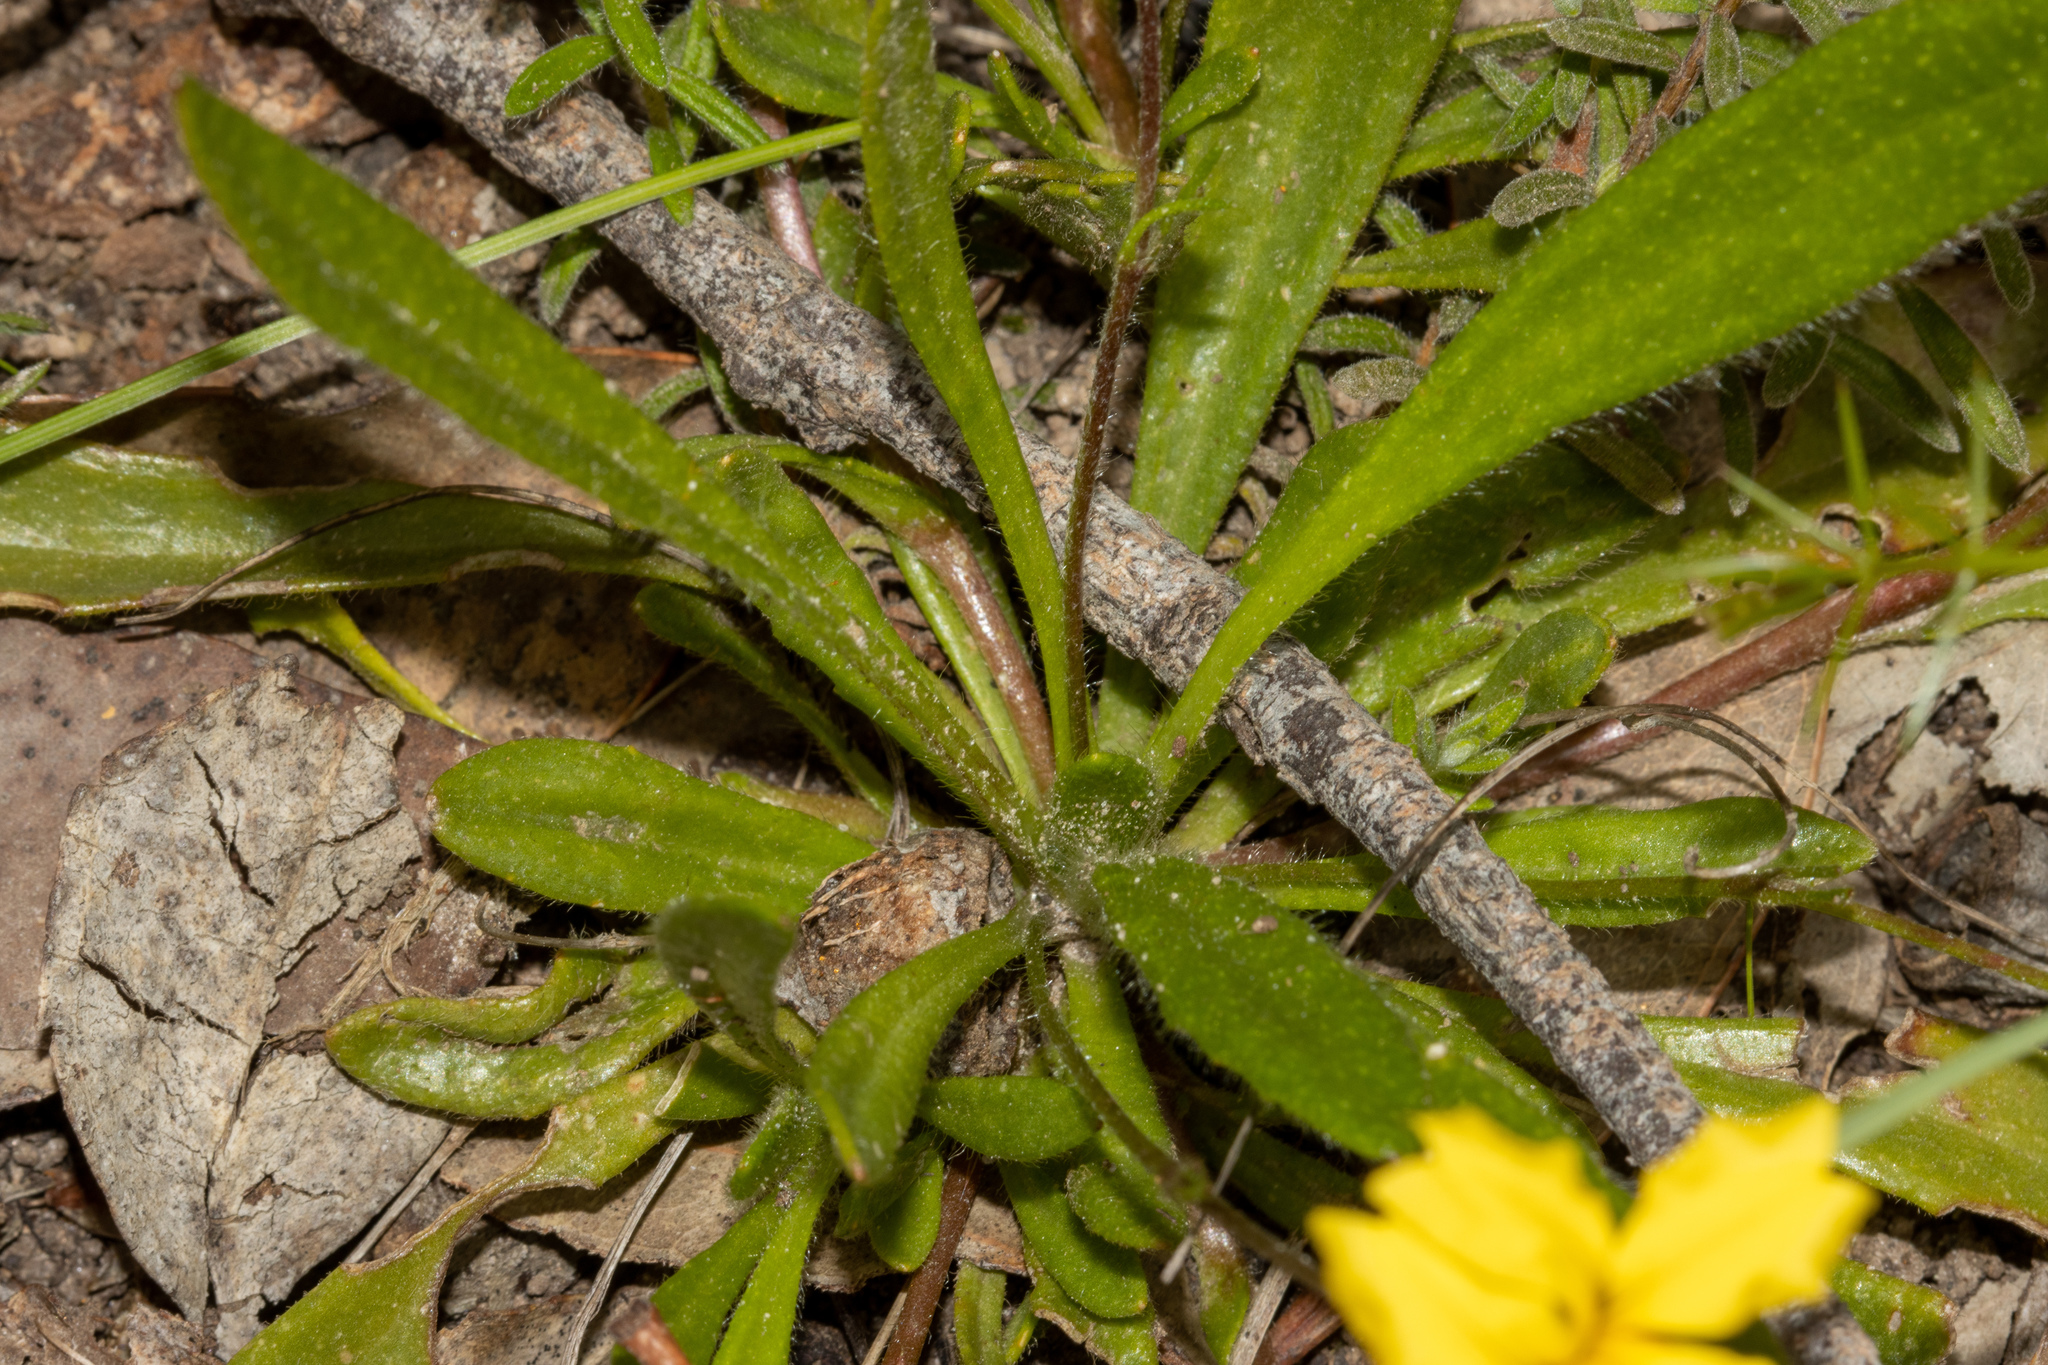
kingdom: Plantae
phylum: Tracheophyta
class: Magnoliopsida
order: Asterales
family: Goodeniaceae
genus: Goodenia
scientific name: Goodenia geniculata
